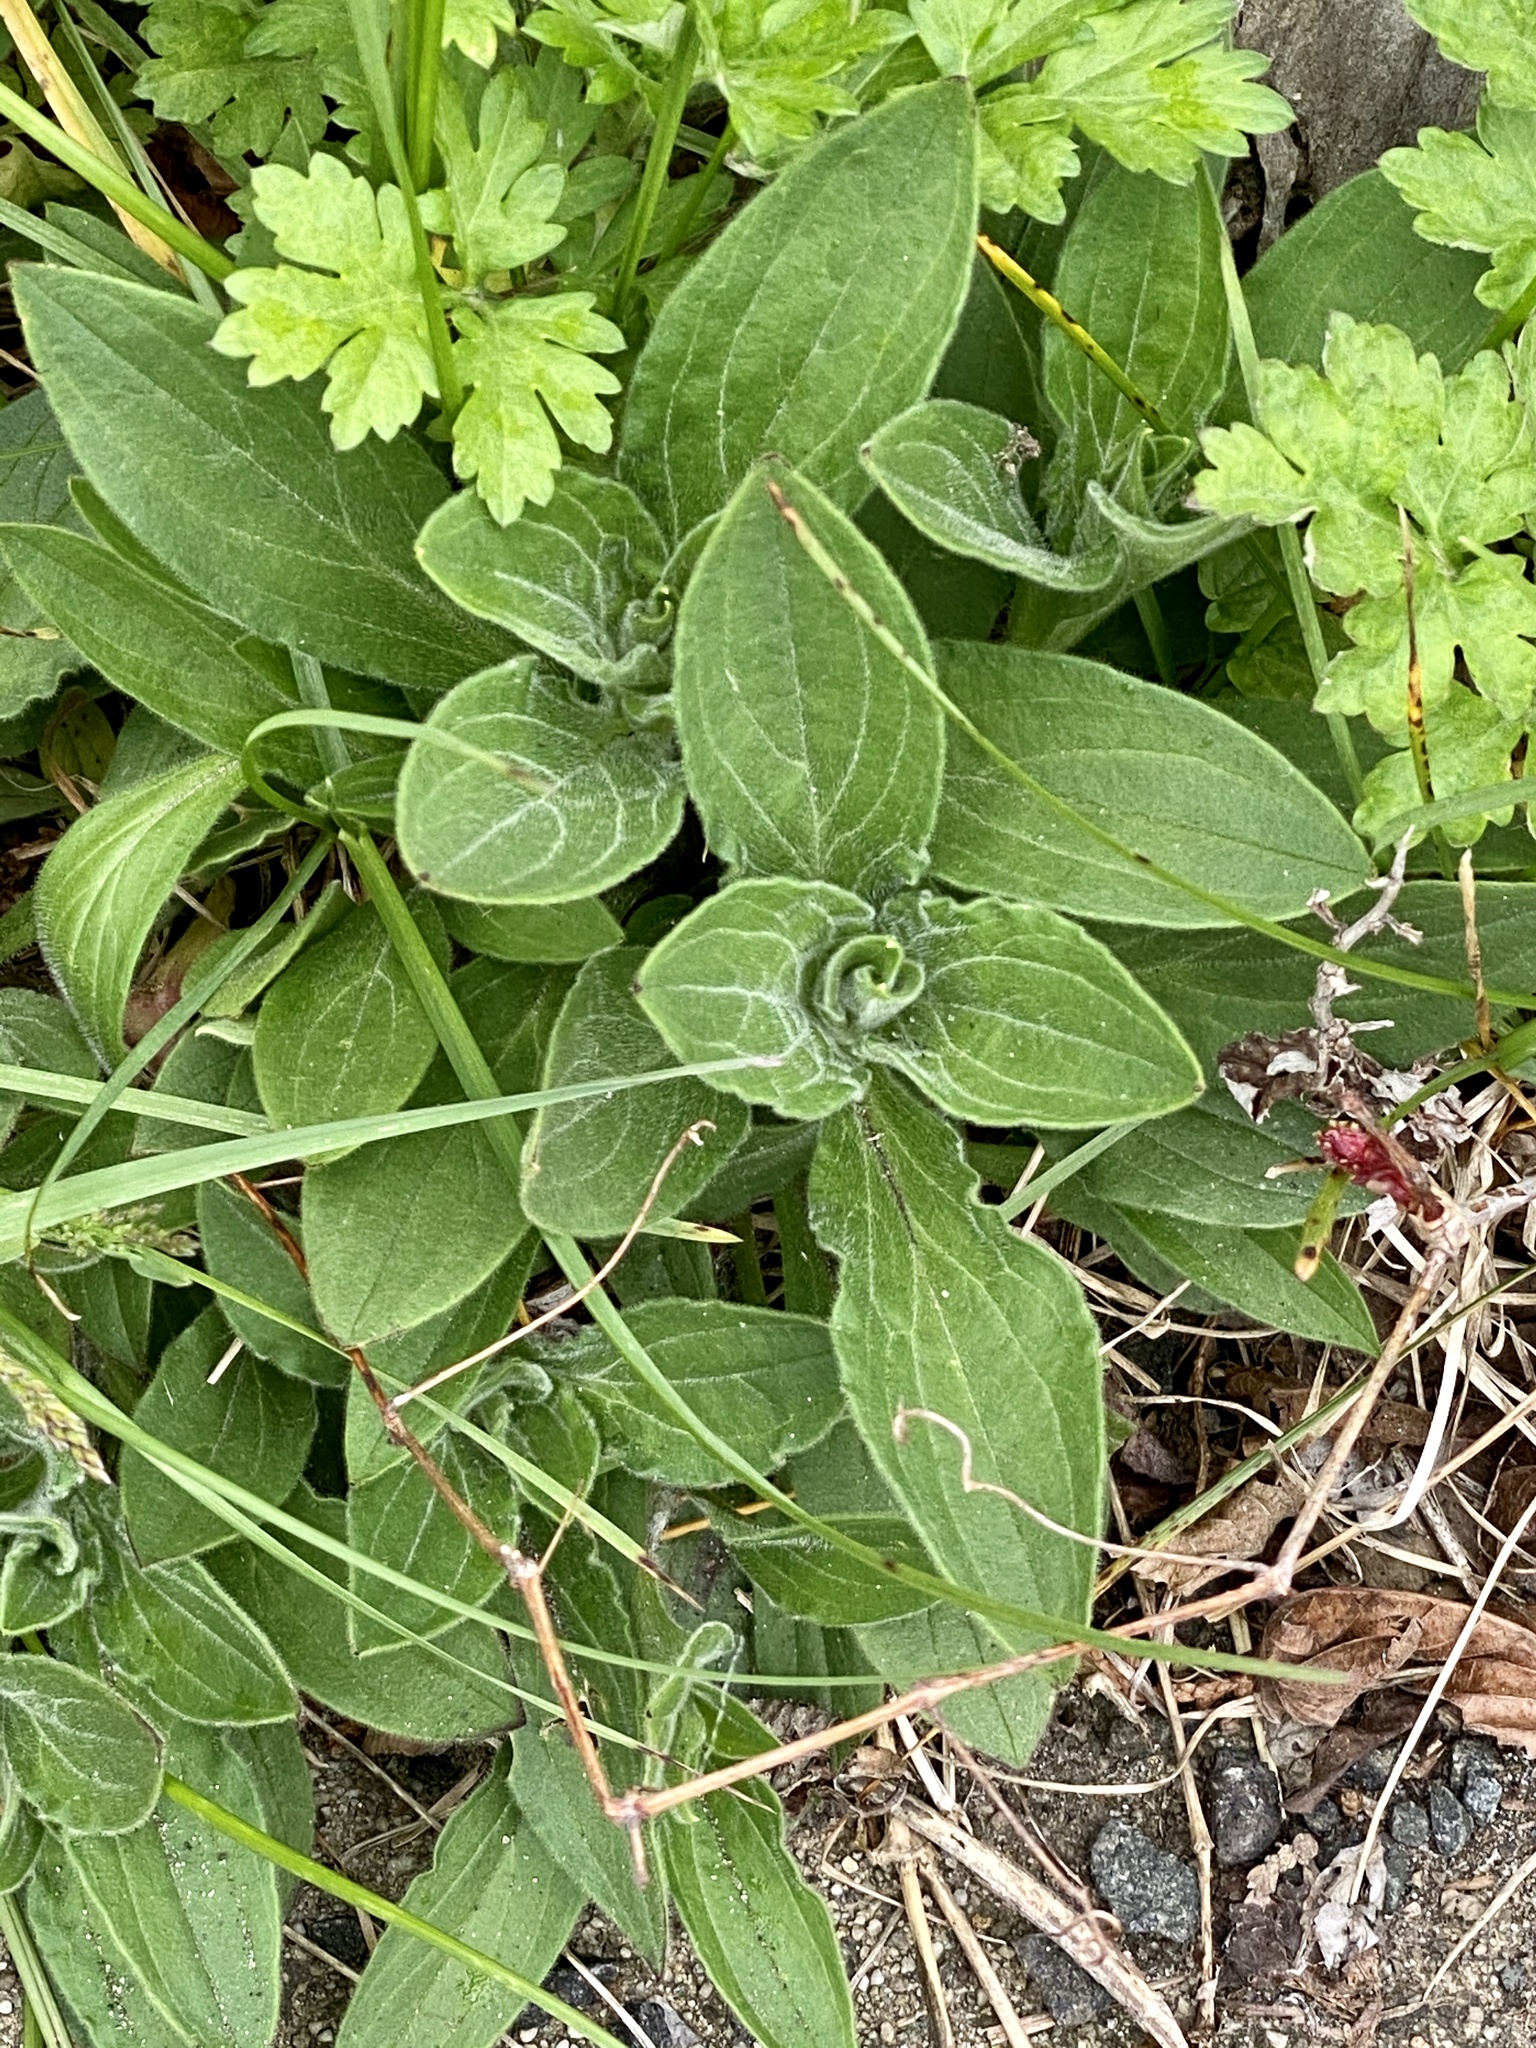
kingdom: Plantae
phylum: Tracheophyta
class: Magnoliopsida
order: Caryophyllales
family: Caryophyllaceae
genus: Silene
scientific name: Silene latifolia
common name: White campion
